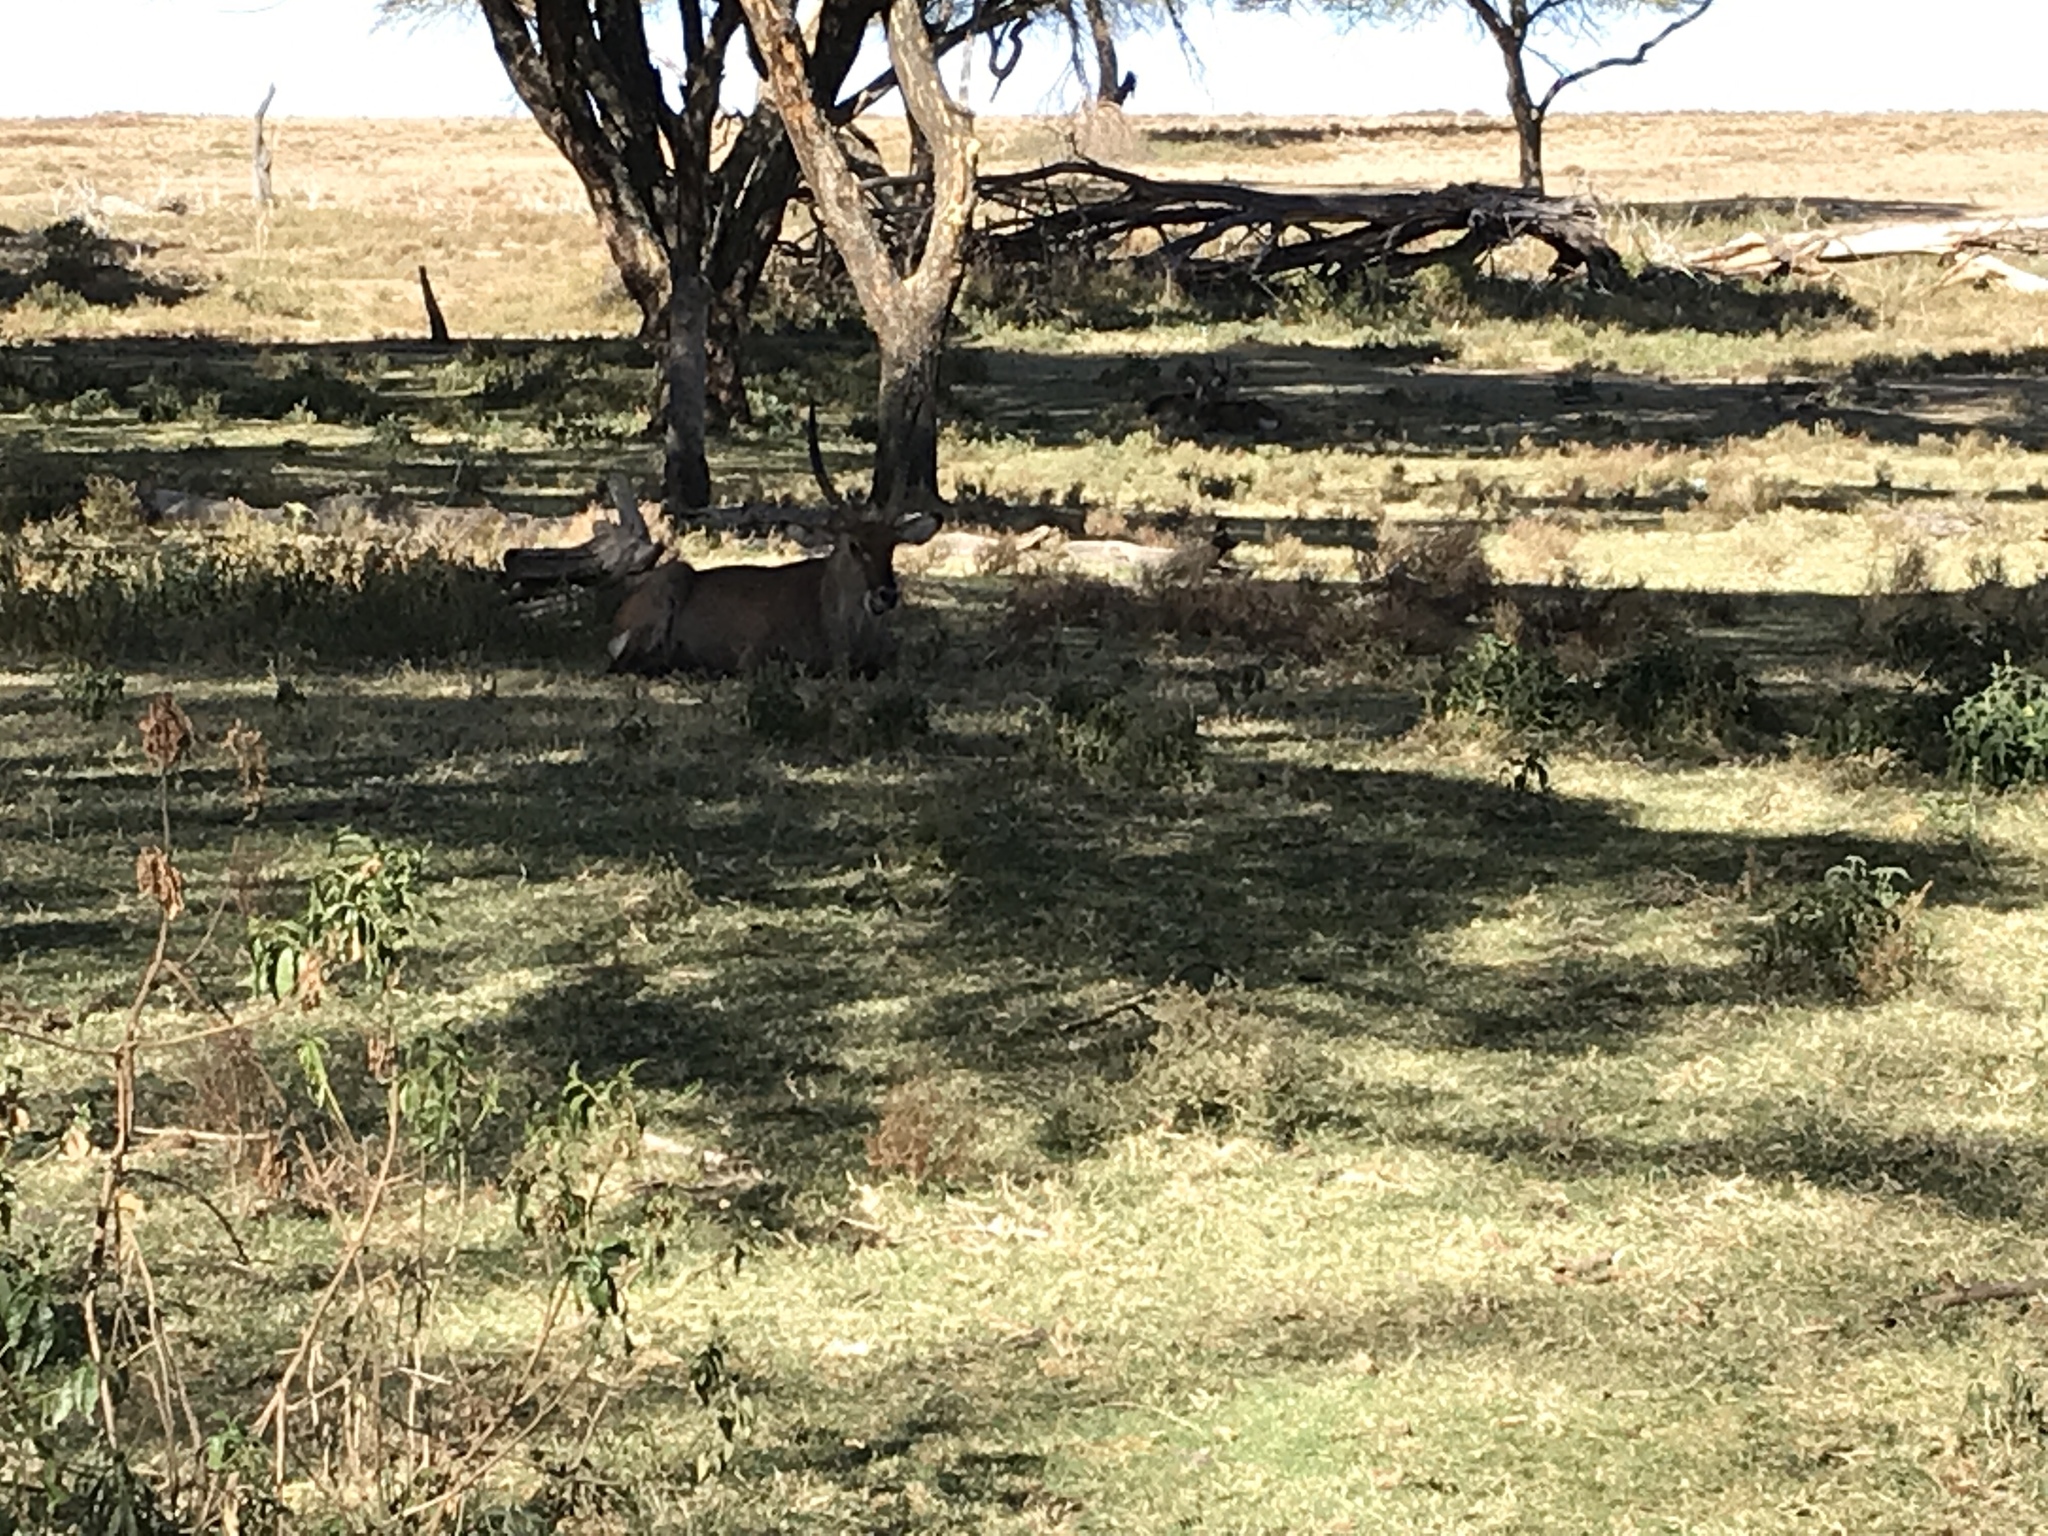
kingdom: Animalia
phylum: Chordata
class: Mammalia
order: Artiodactyla
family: Bovidae
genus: Kobus
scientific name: Kobus ellipsiprymnus
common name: Waterbuck
